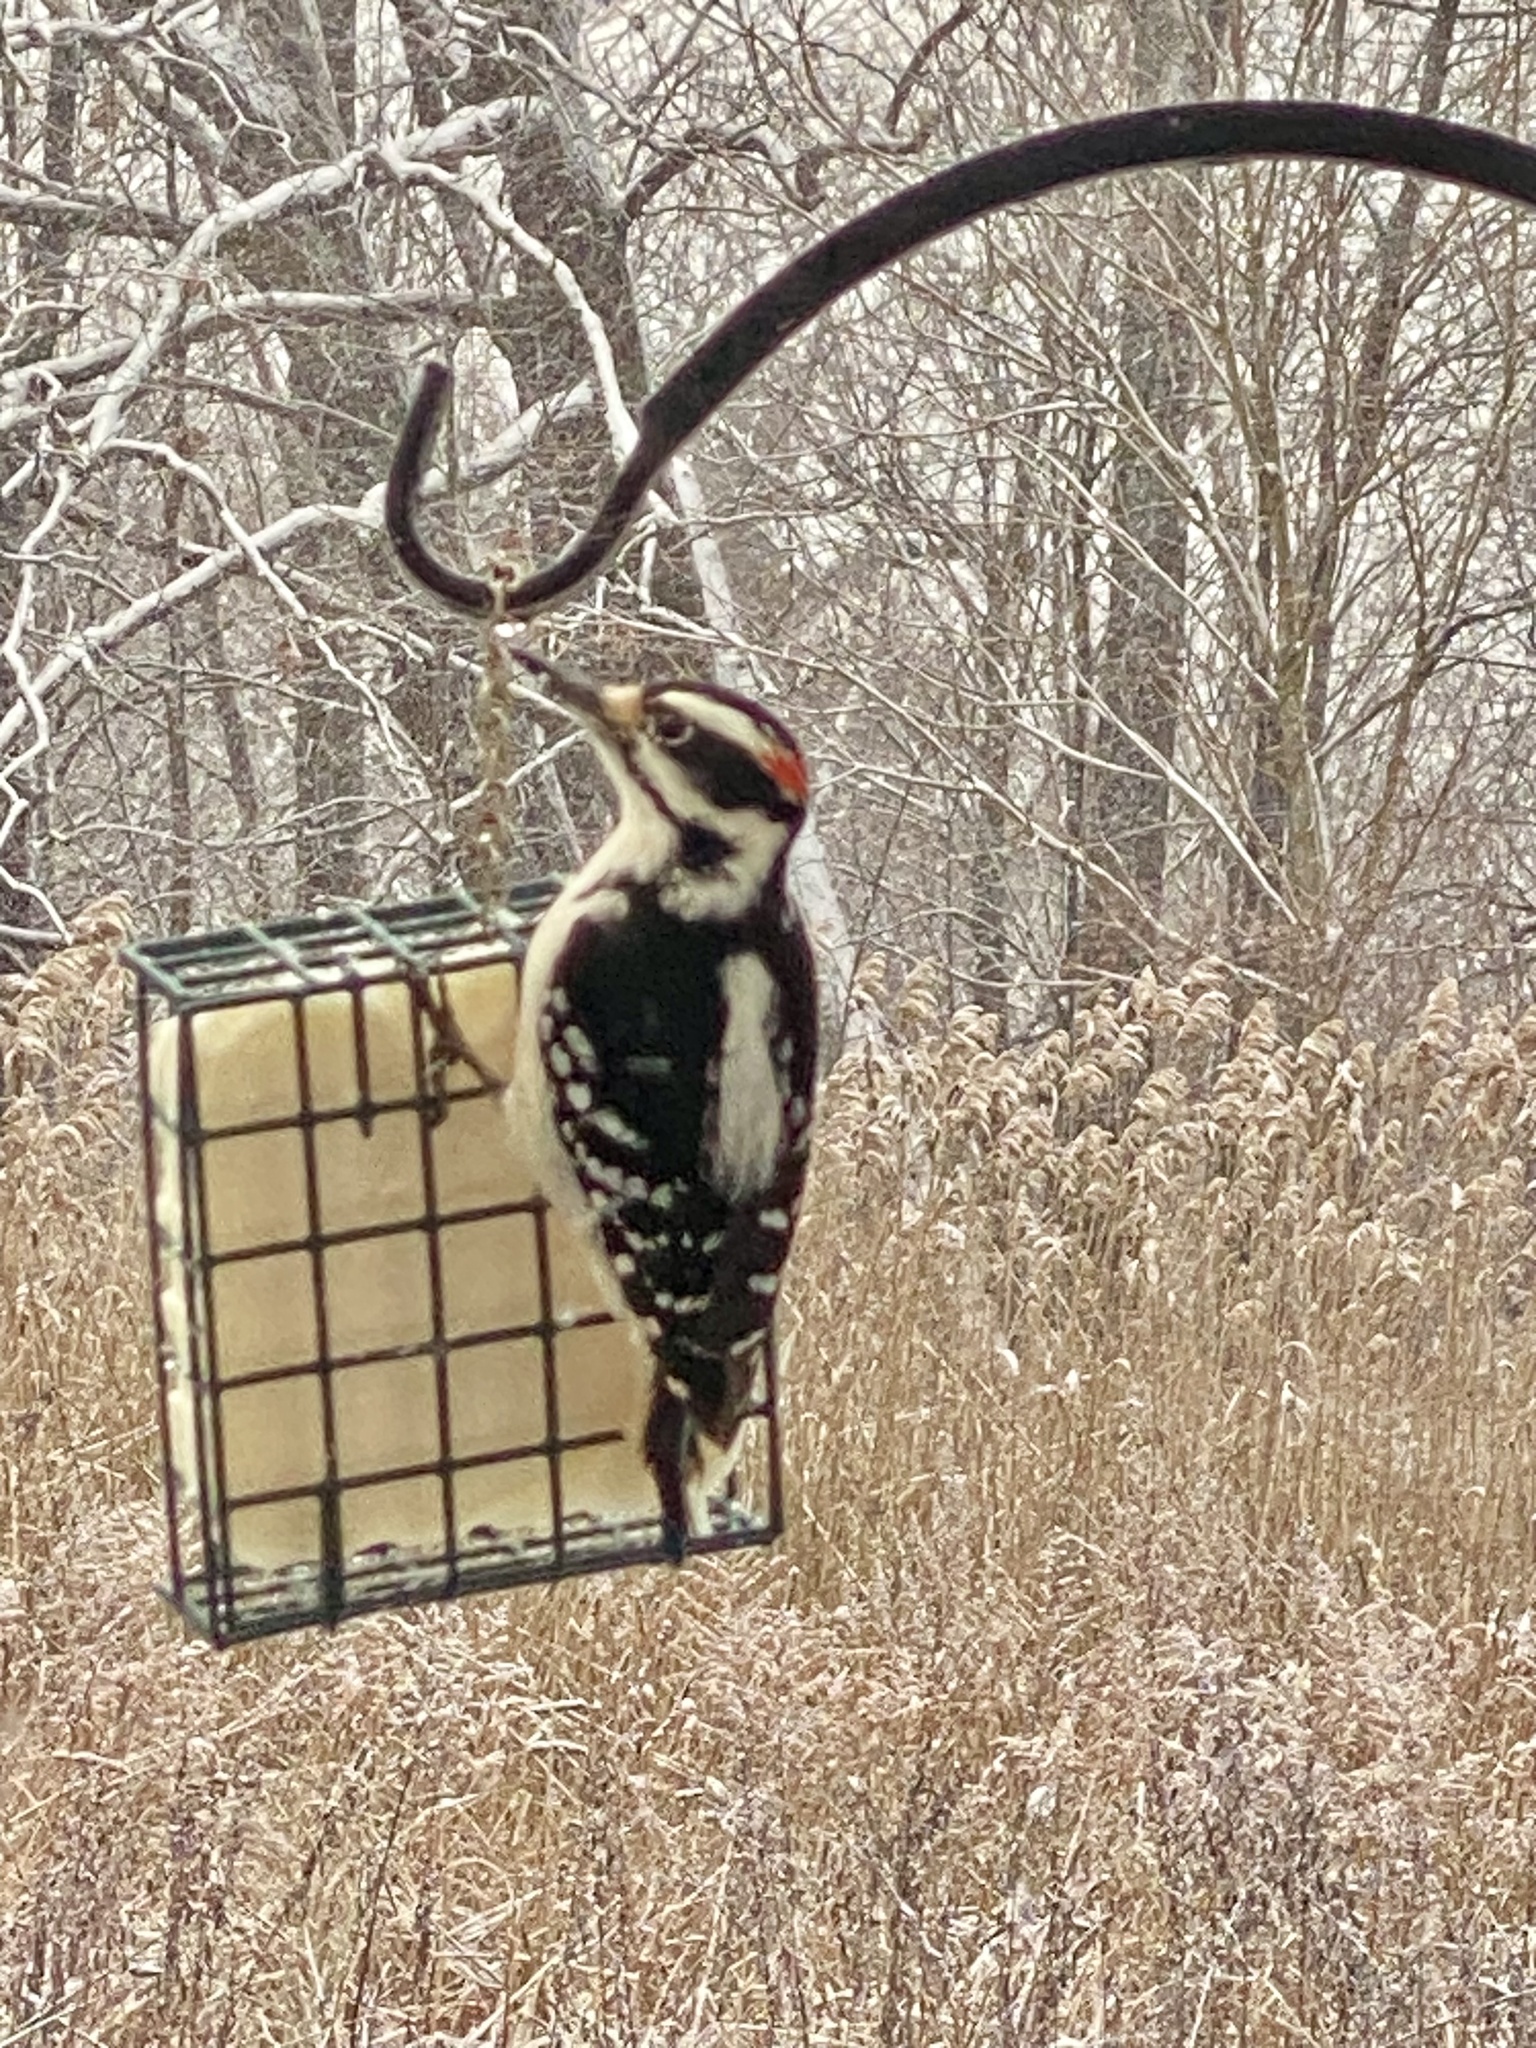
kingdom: Animalia
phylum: Chordata
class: Aves
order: Piciformes
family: Picidae
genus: Leuconotopicus
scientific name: Leuconotopicus villosus
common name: Hairy woodpecker
